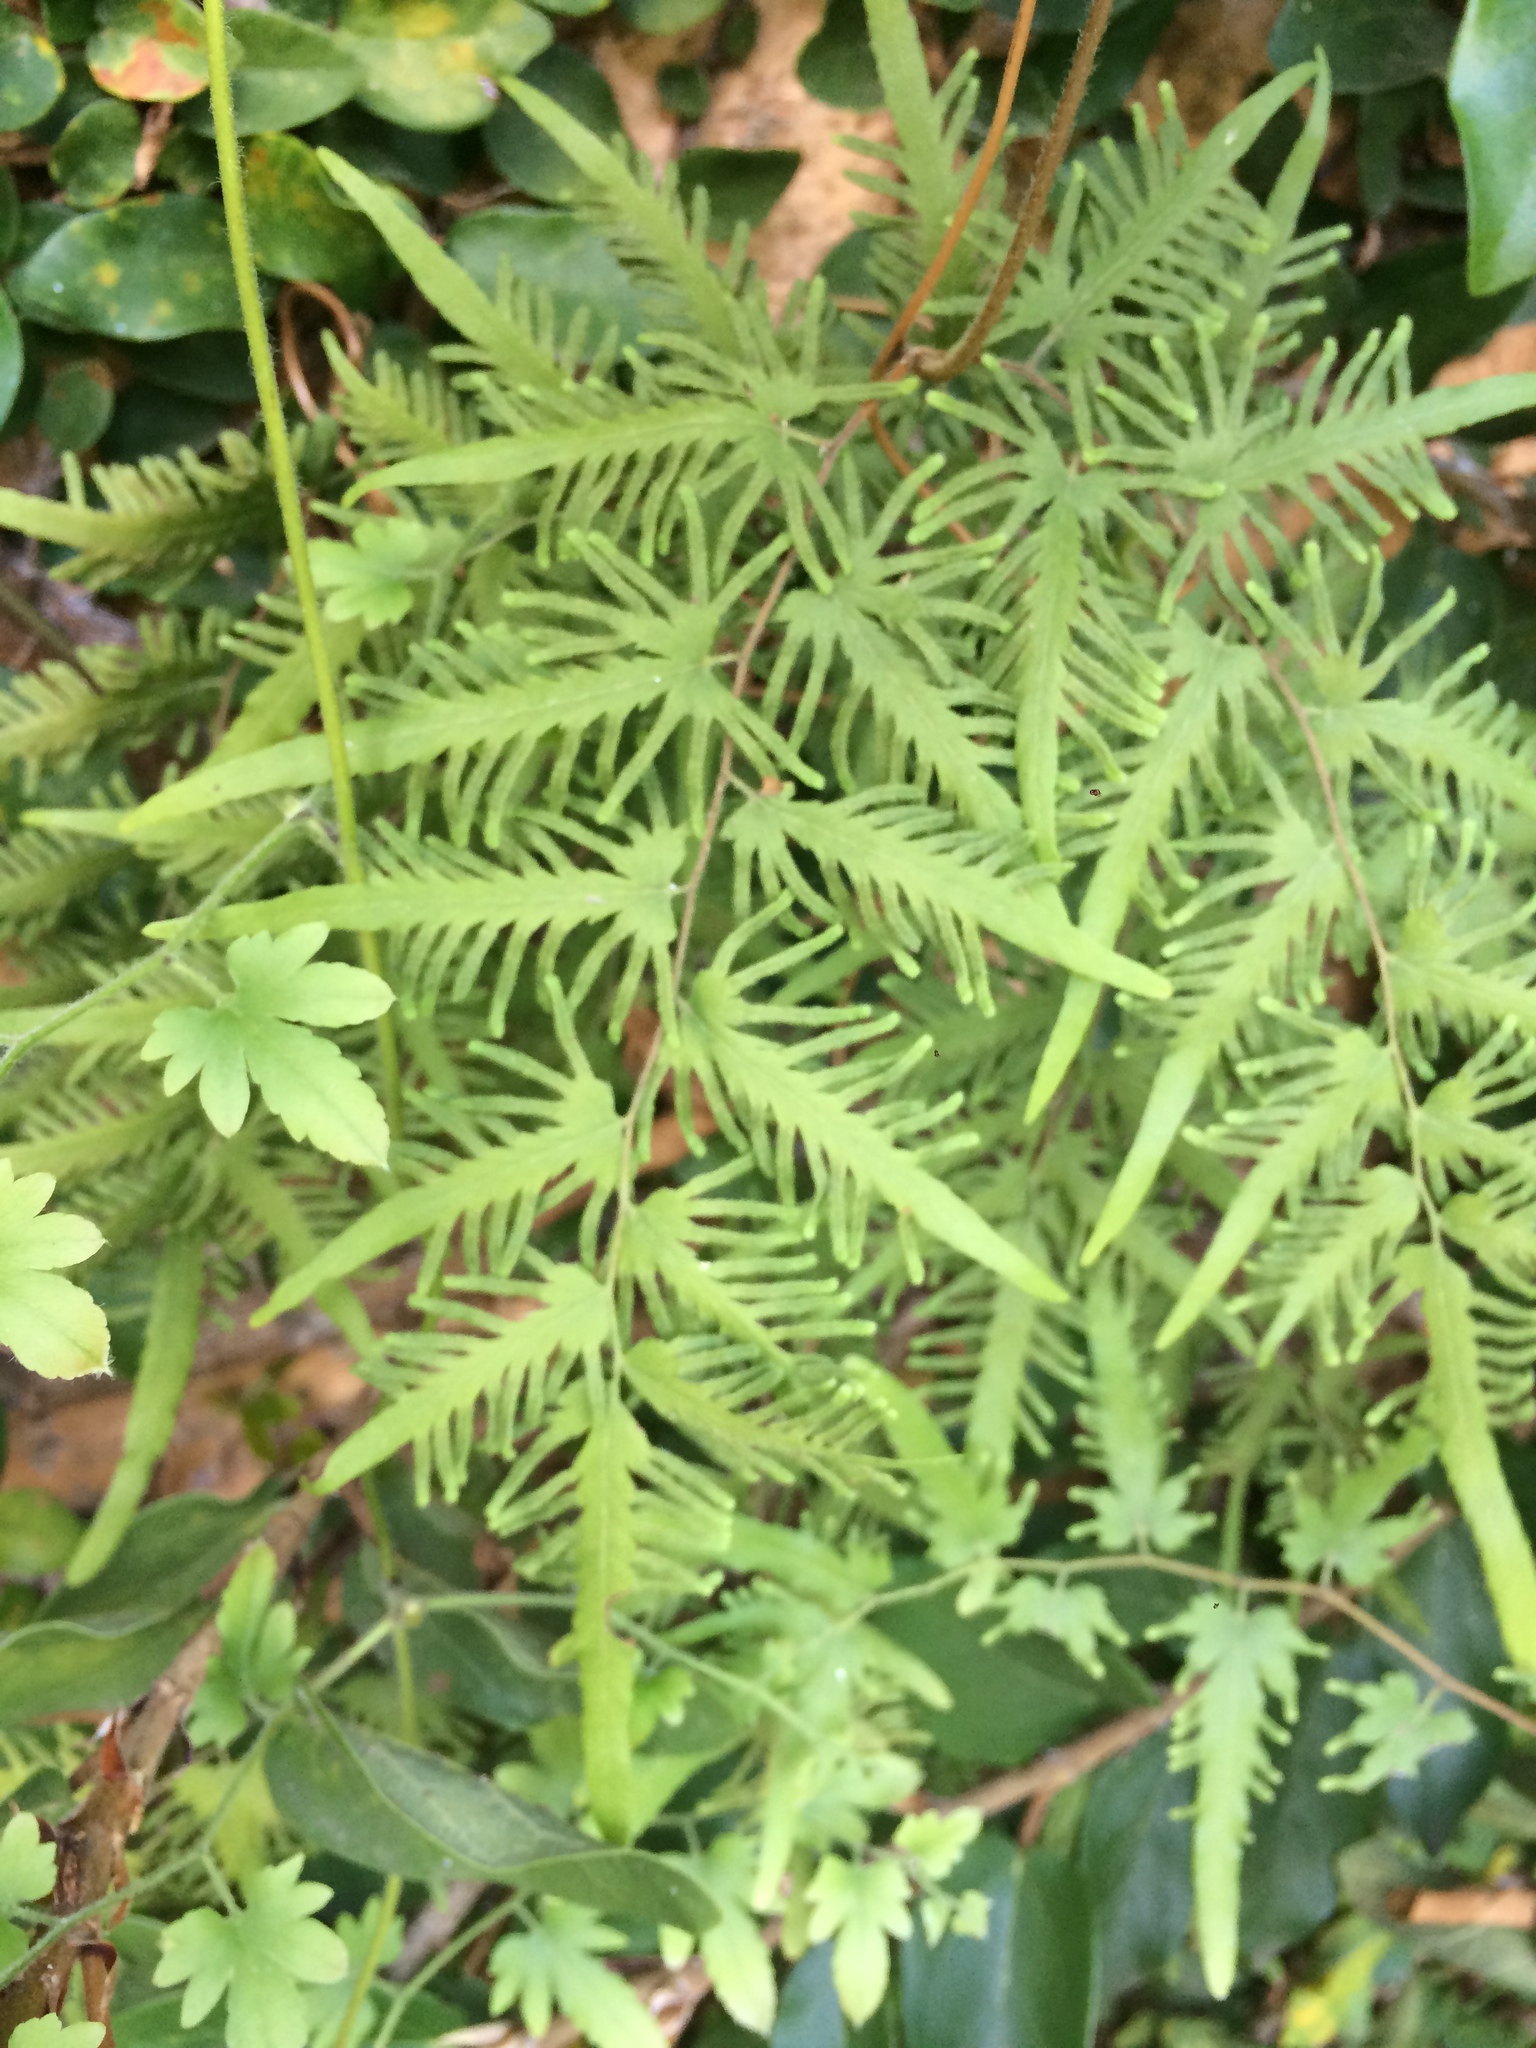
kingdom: Plantae
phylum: Tracheophyta
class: Polypodiopsida
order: Schizaeales
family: Lygodiaceae
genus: Lygodium
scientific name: Lygodium fayae
